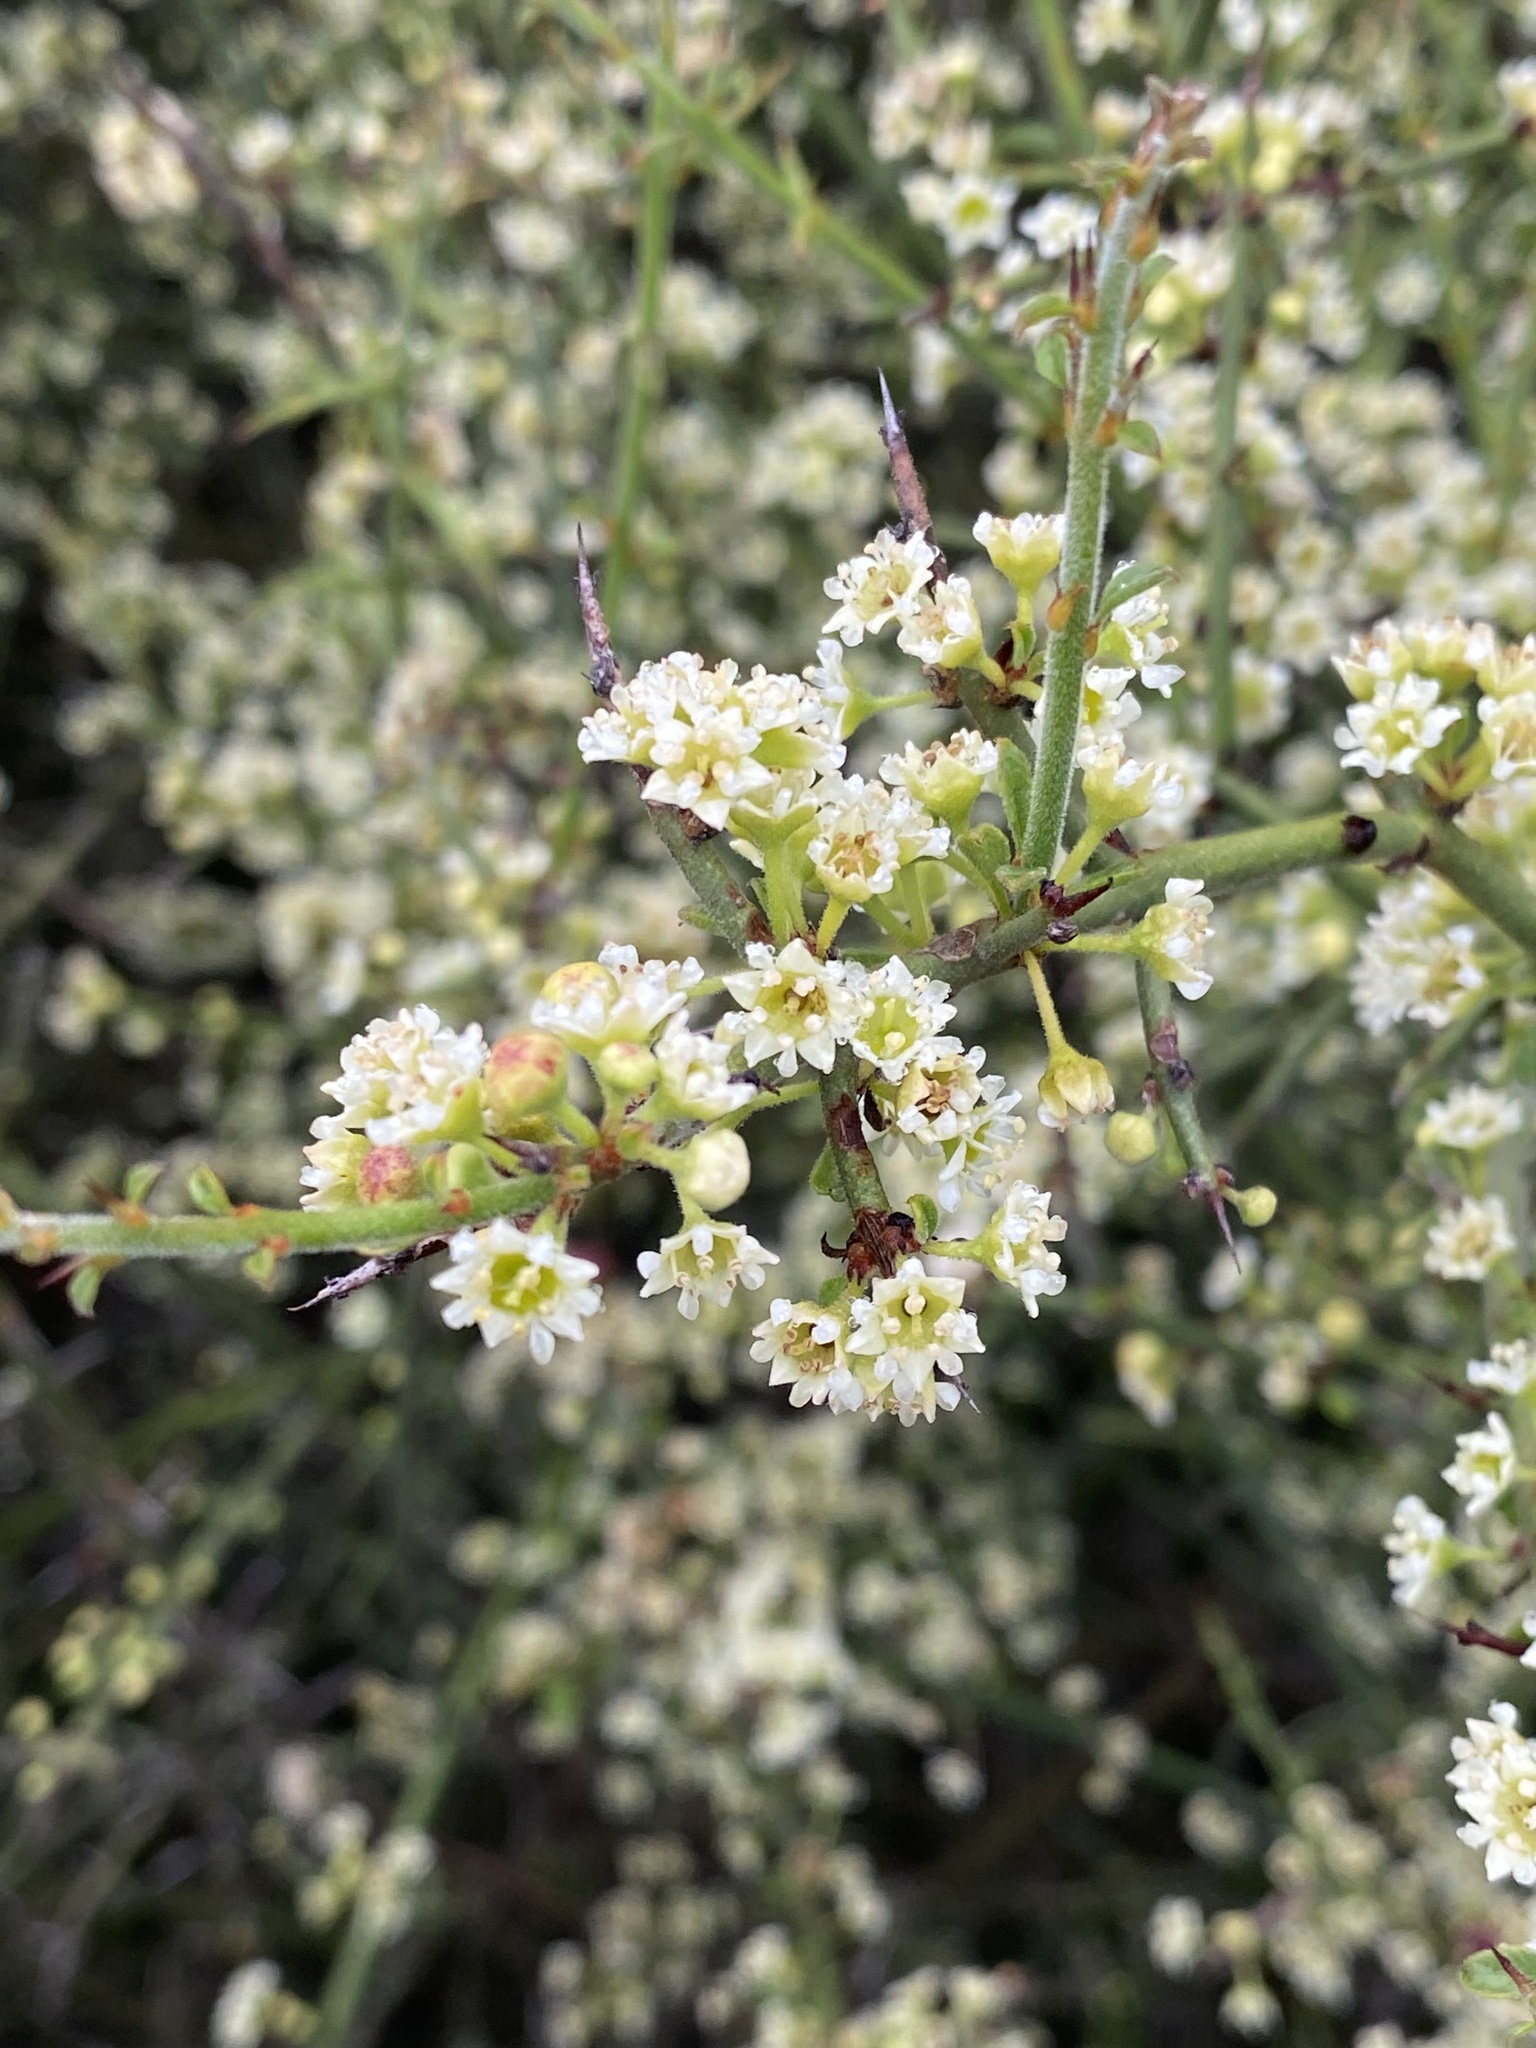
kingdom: Plantae
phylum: Tracheophyta
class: Magnoliopsida
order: Rosales
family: Rhamnaceae
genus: Adolphia
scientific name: Adolphia californica
